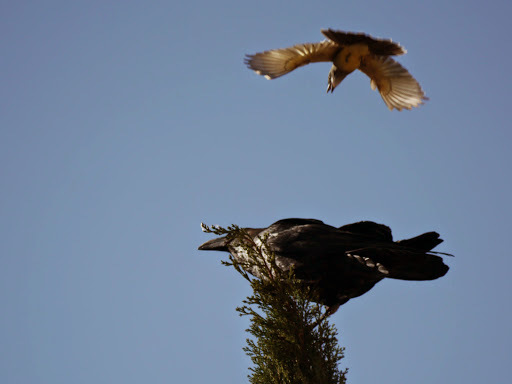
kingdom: Animalia
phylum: Chordata
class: Aves
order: Passeriformes
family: Corvidae
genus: Corvus
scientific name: Corvus
